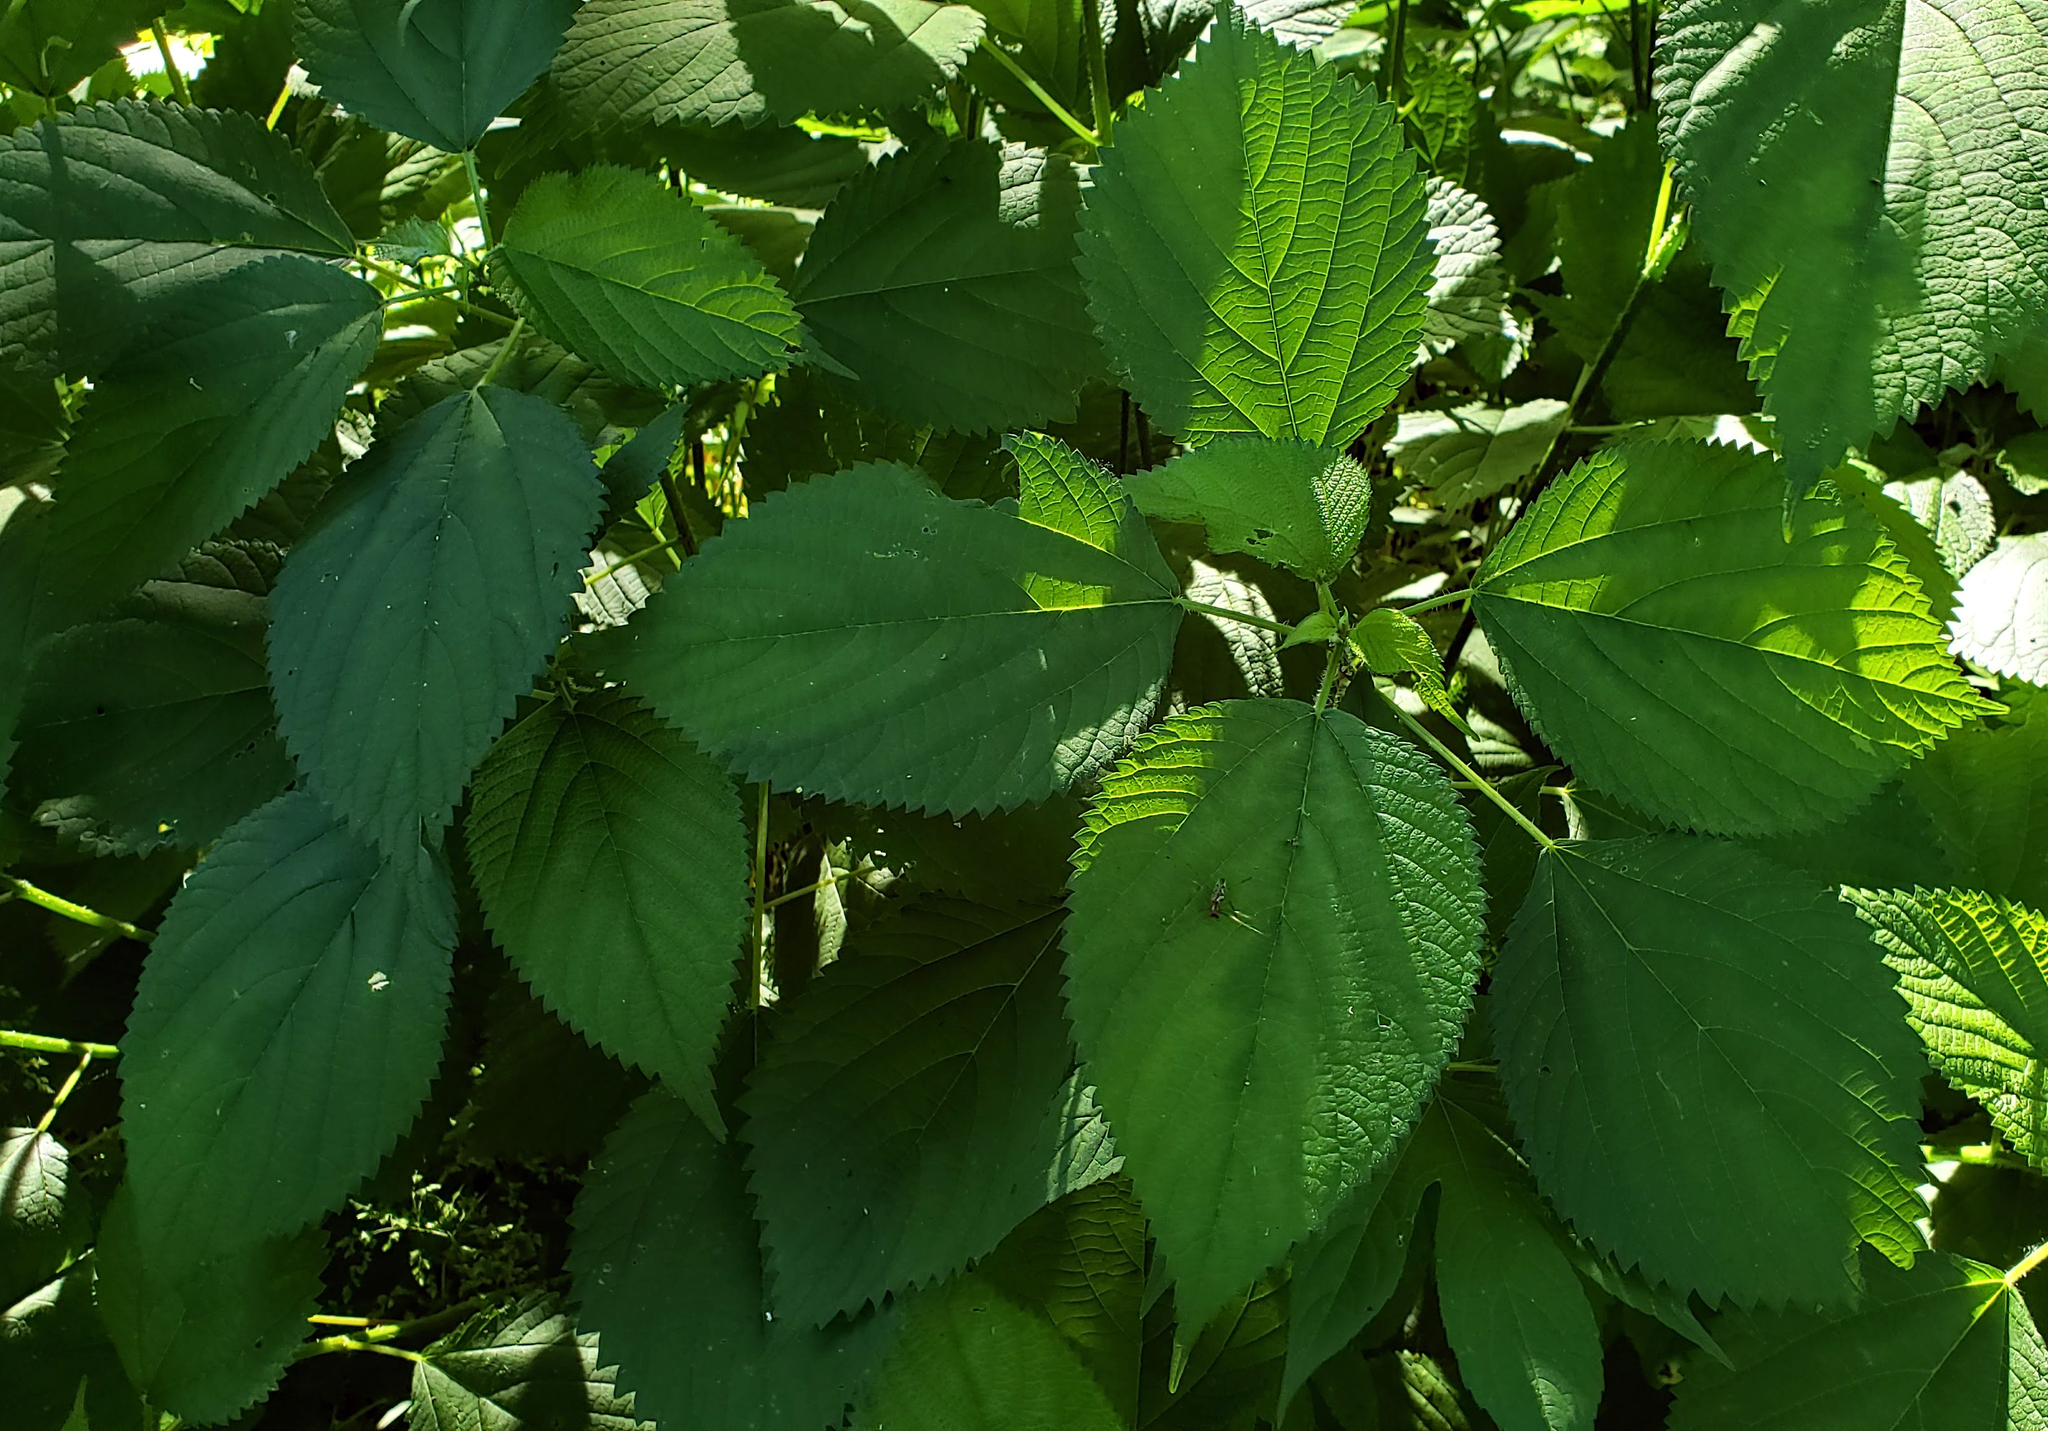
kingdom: Plantae
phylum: Tracheophyta
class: Magnoliopsida
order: Rosales
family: Urticaceae
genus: Laportea
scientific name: Laportea canadensis
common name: Canada nettle
